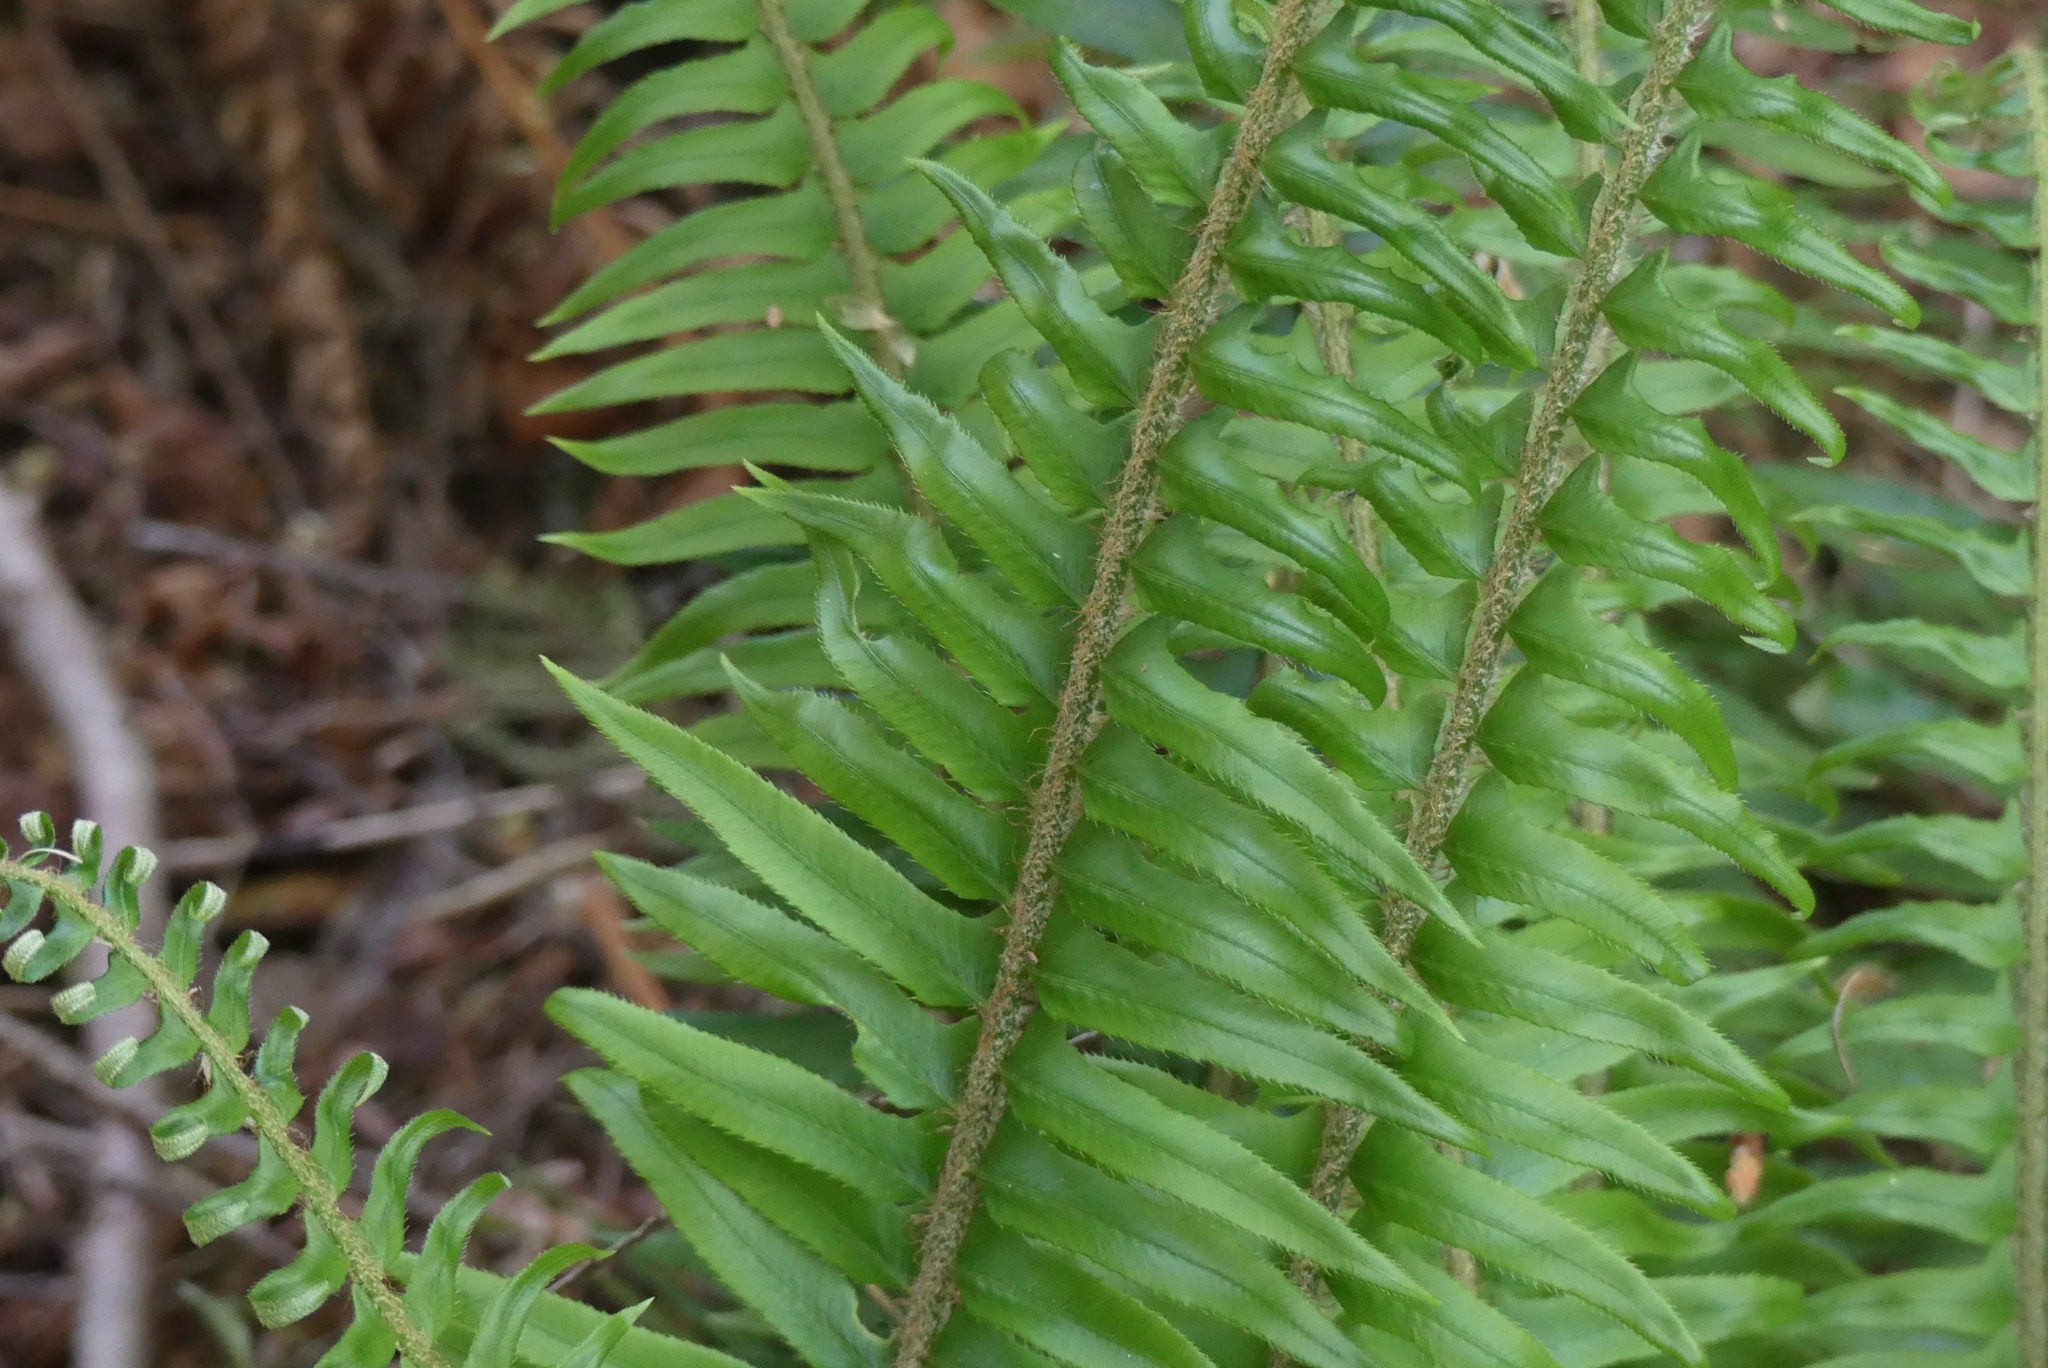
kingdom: Plantae
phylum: Tracheophyta
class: Polypodiopsida
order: Polypodiales
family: Dryopteridaceae
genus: Polystichum
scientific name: Polystichum munitum
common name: Western sword-fern
